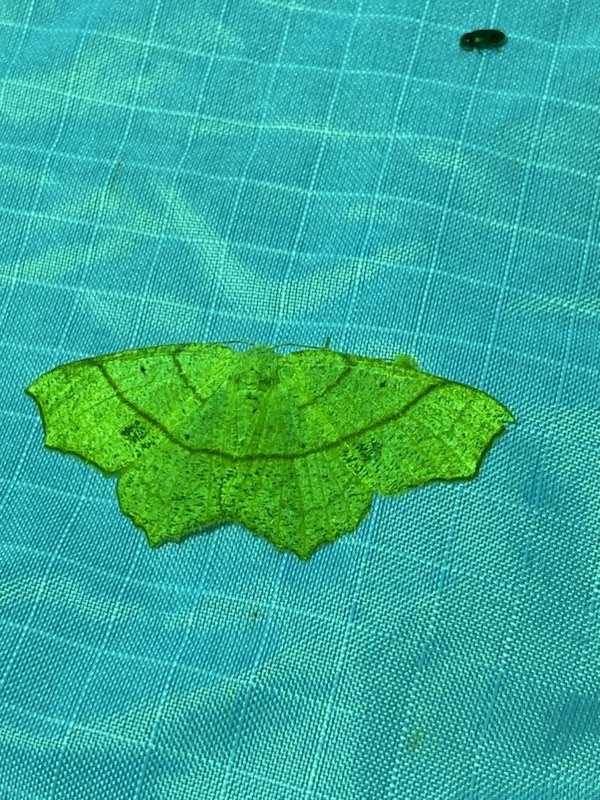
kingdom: Animalia
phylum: Arthropoda
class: Insecta
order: Lepidoptera
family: Geometridae
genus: Besma
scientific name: Besma quercivoraria
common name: Oak besma
